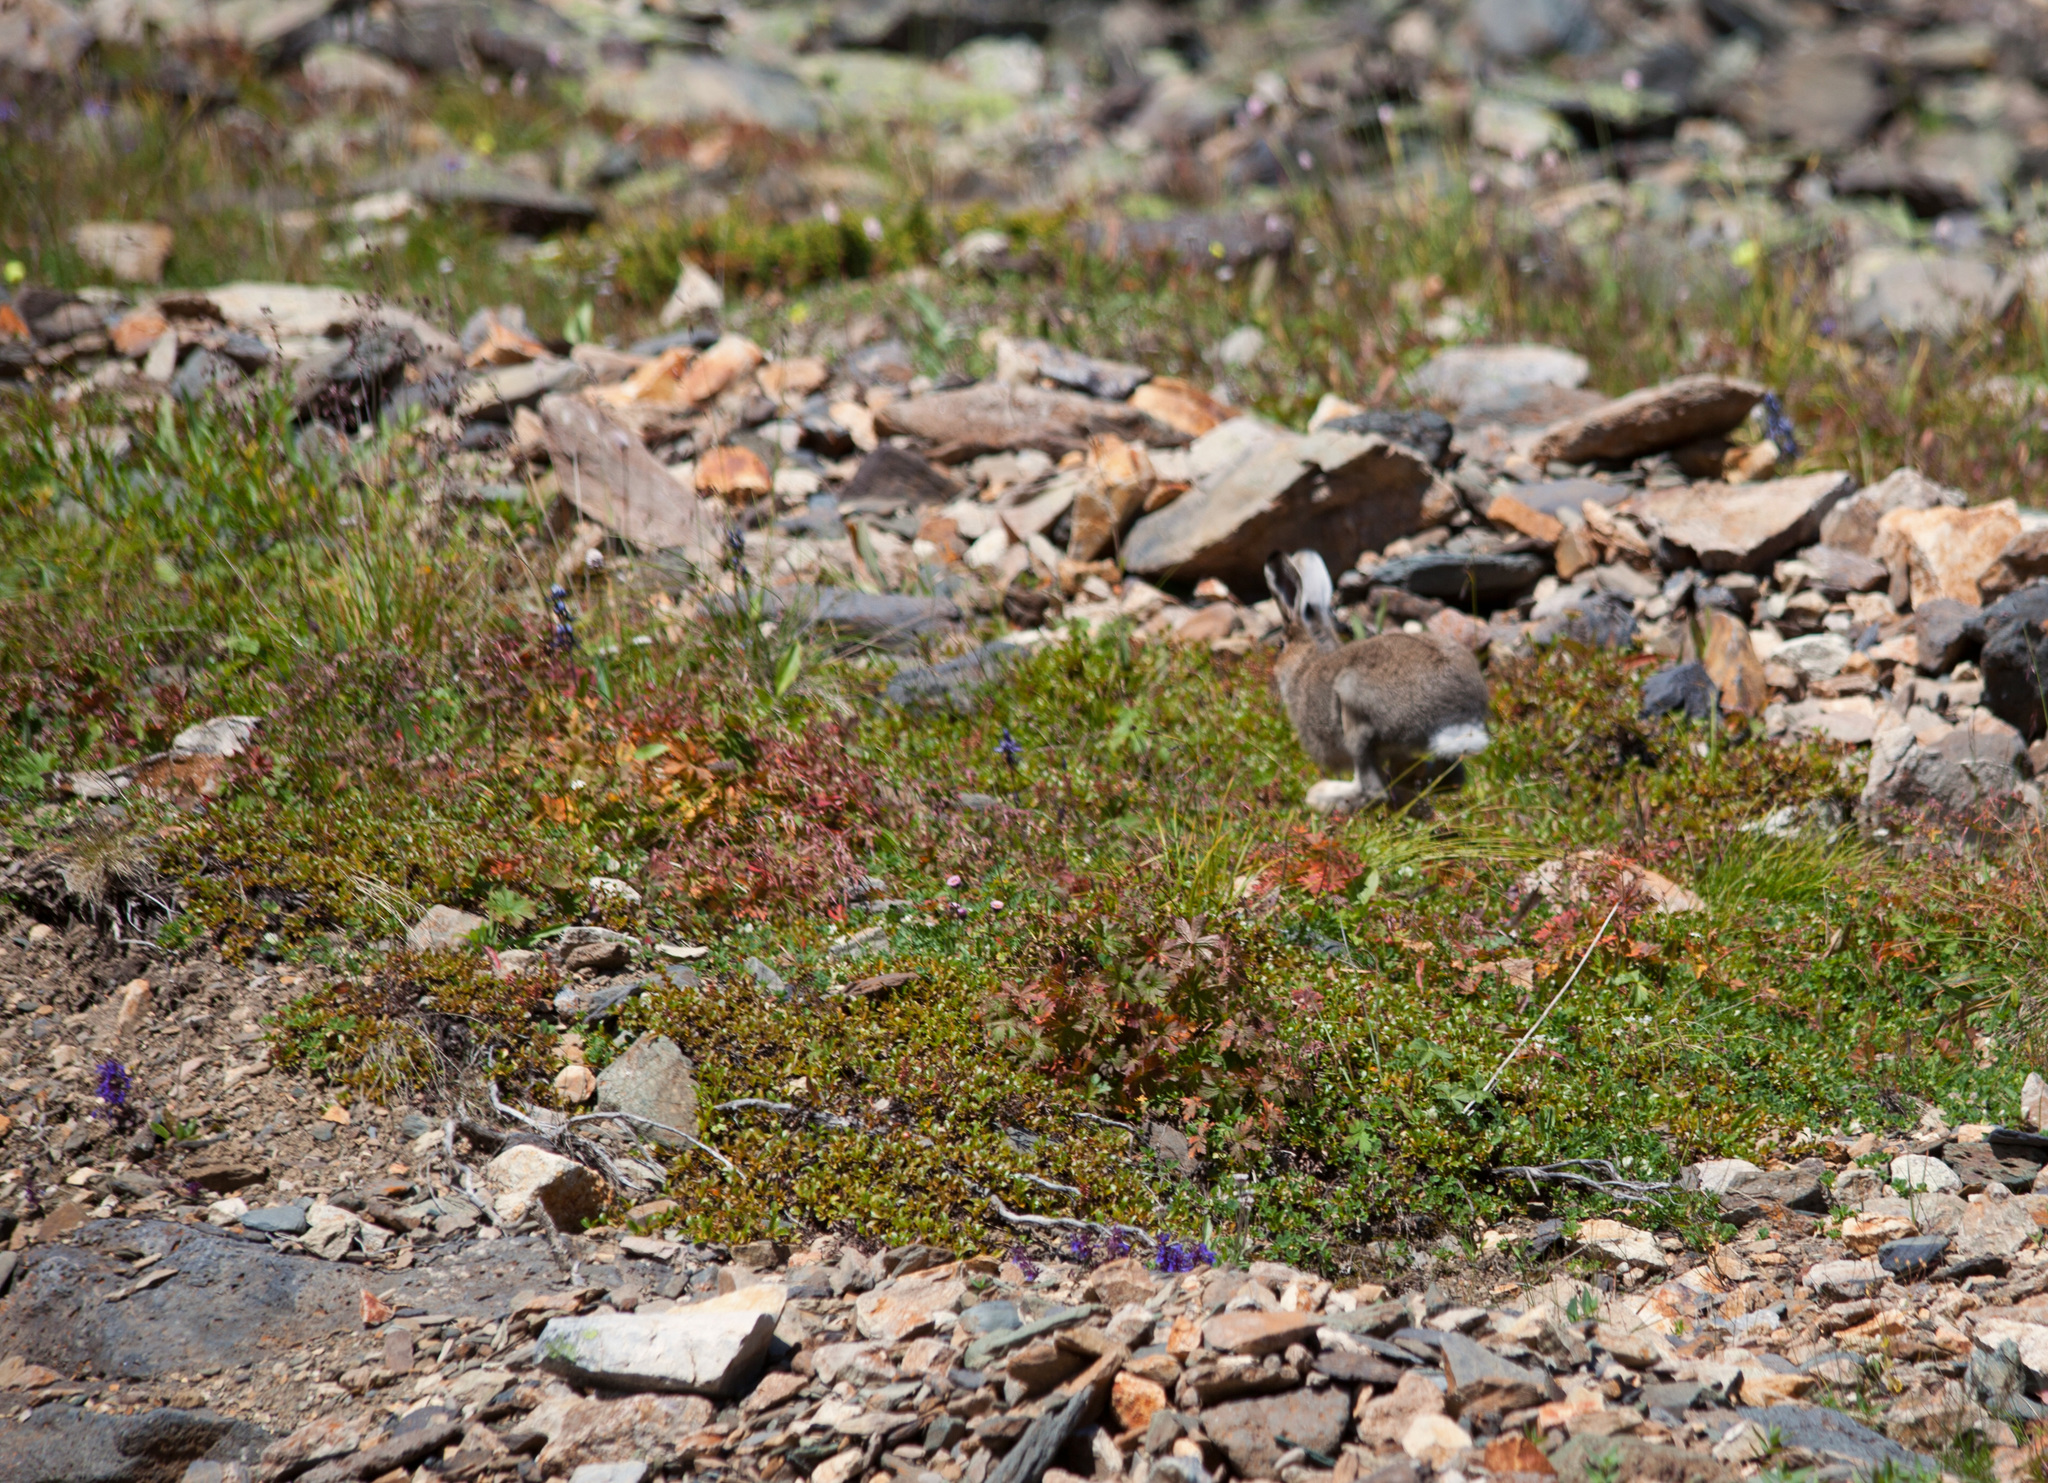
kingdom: Animalia
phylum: Chordata
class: Mammalia
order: Lagomorpha
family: Leporidae
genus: Lepus
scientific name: Lepus timidus
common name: Mountain hare
